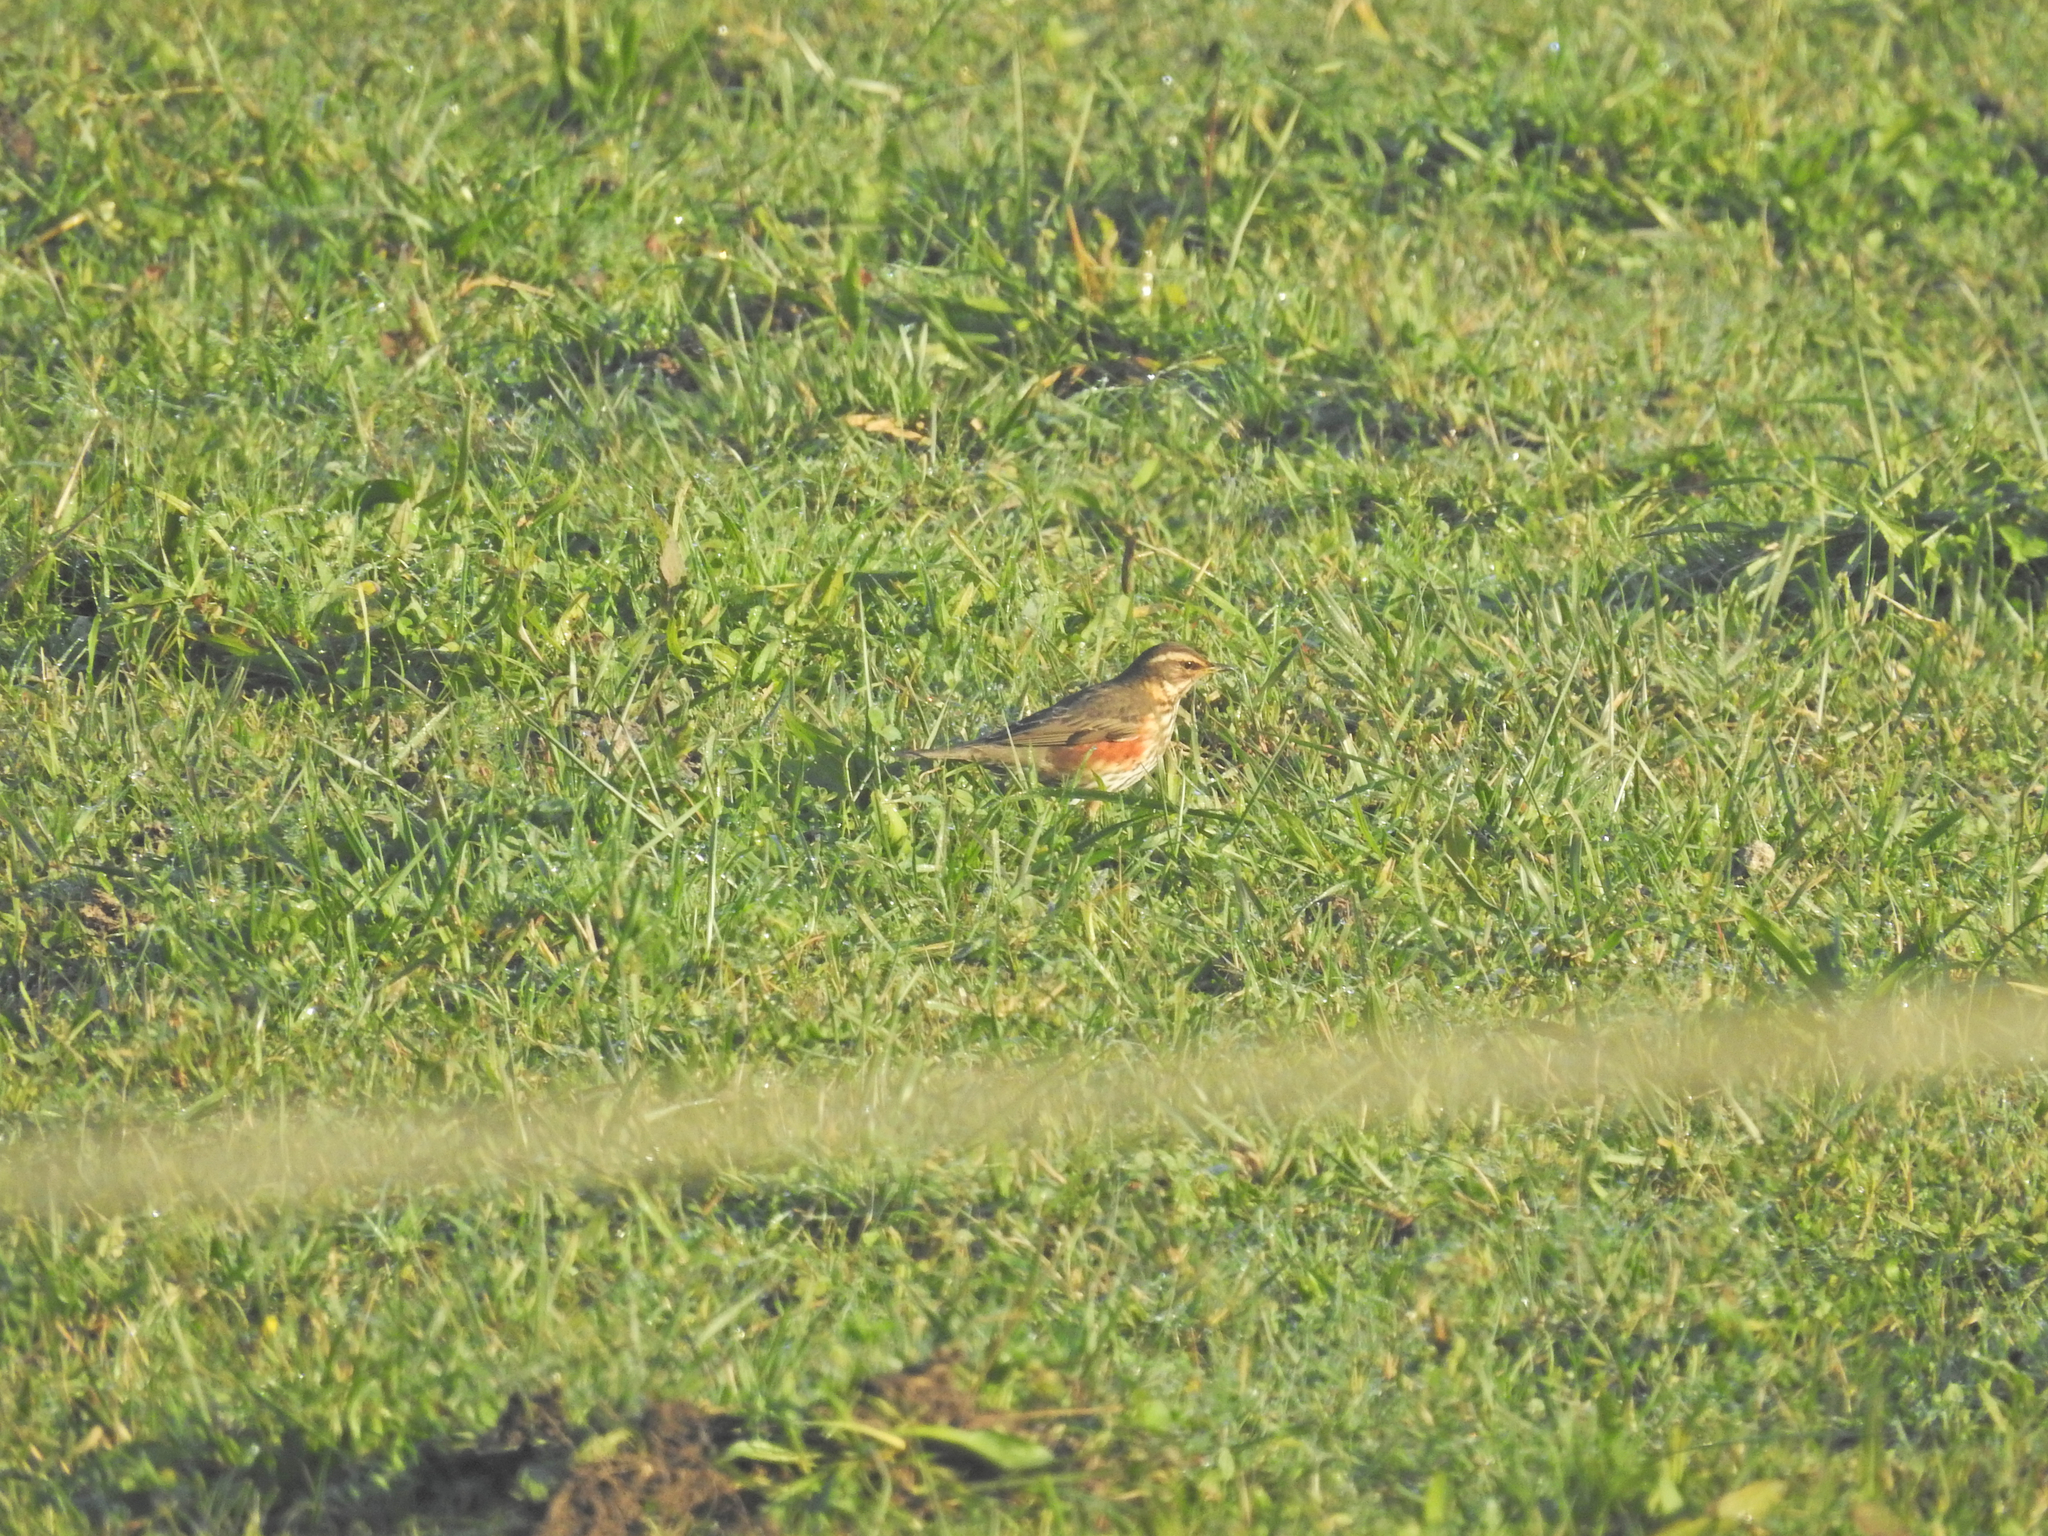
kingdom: Animalia
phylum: Chordata
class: Aves
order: Passeriformes
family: Turdidae
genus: Turdus
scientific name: Turdus iliacus
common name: Redwing
